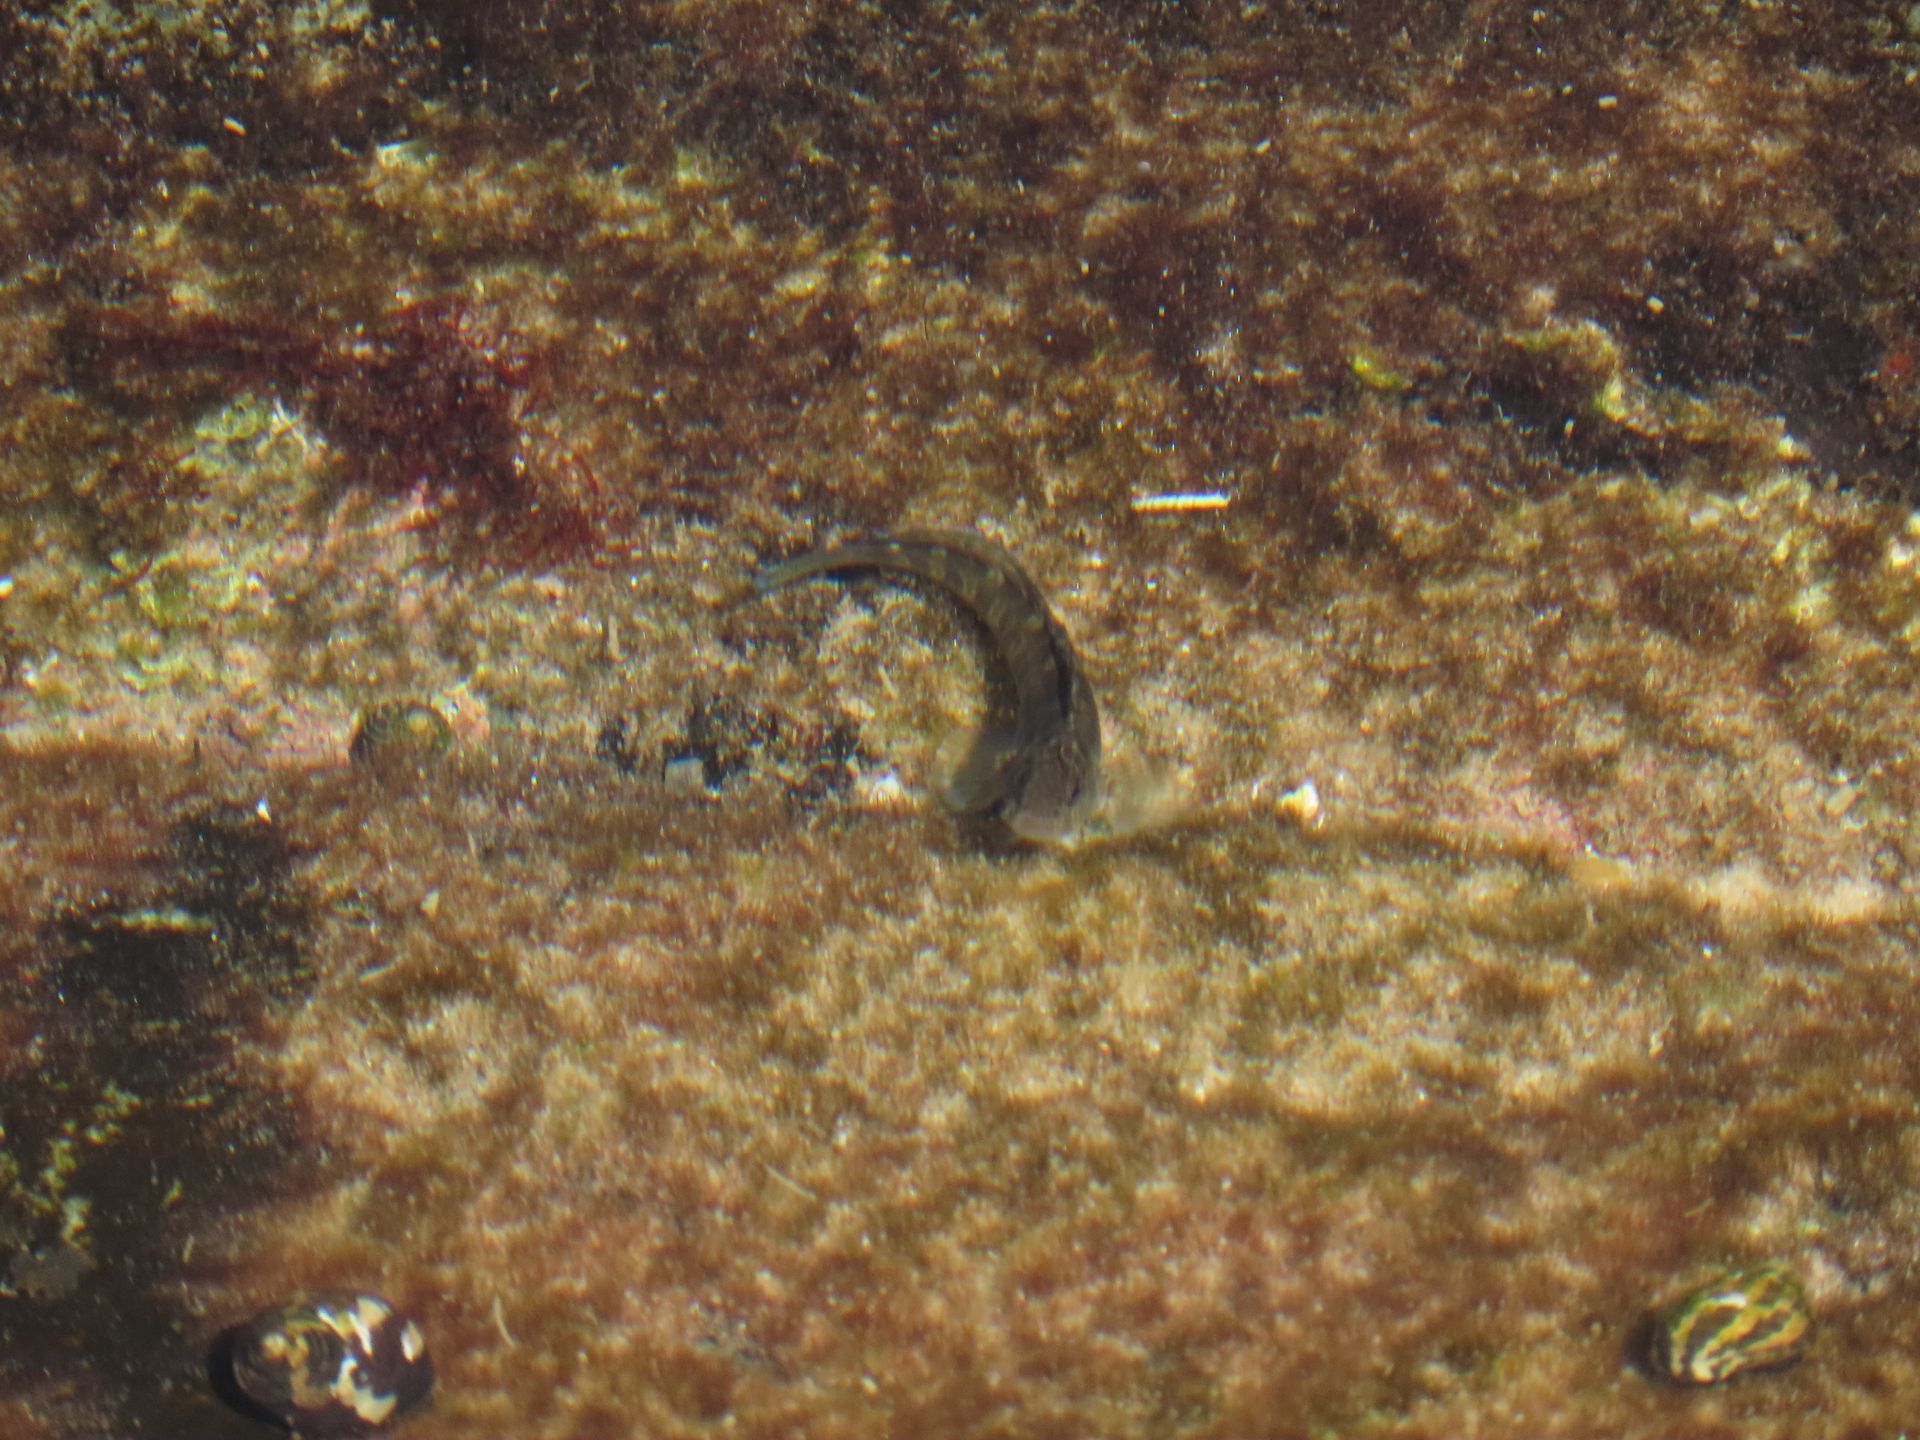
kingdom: Animalia
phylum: Chordata
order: Perciformes
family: Blenniidae
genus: Istiblennius
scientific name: Istiblennius edentulus
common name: Rippled rockskipper
